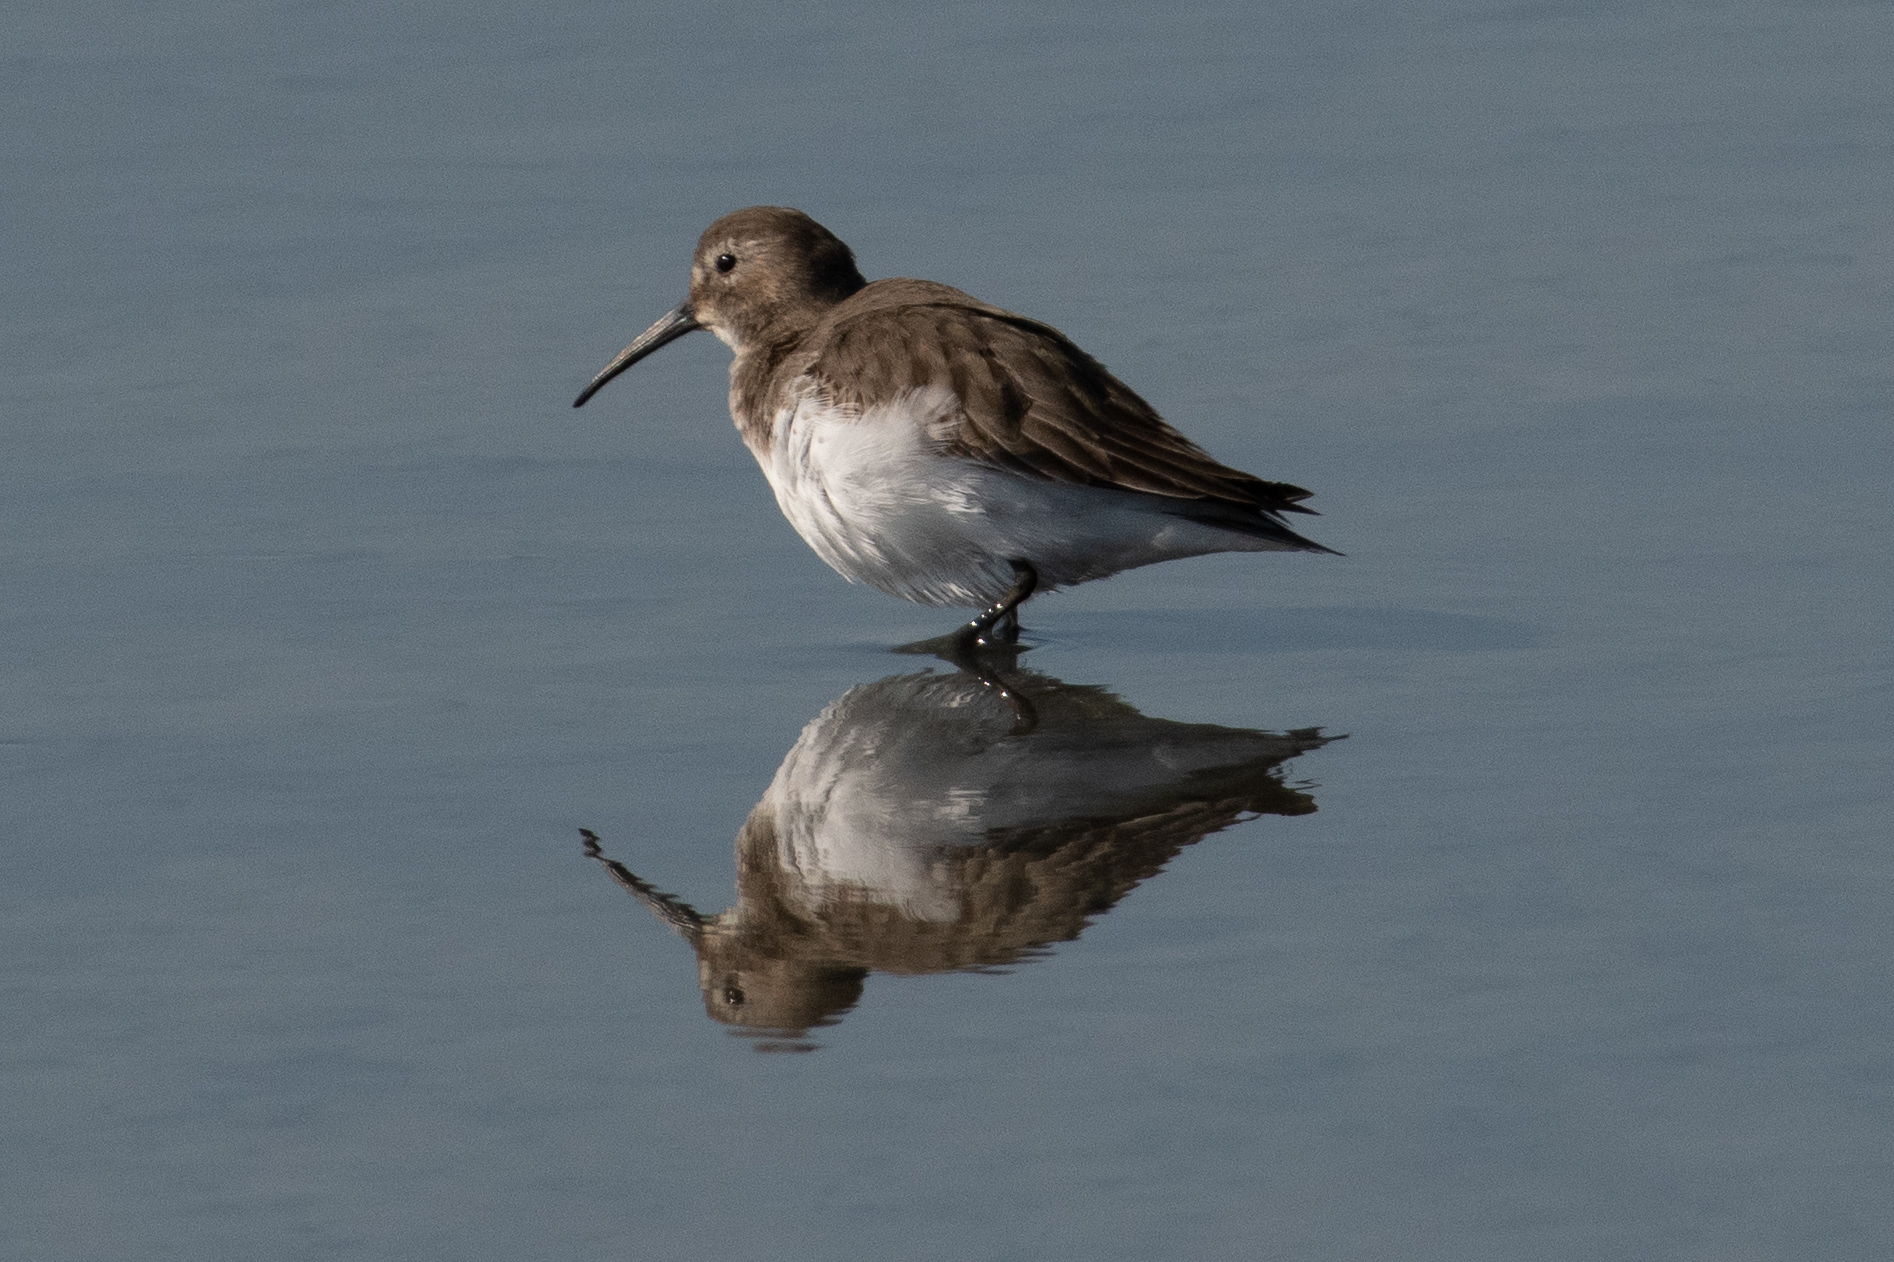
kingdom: Animalia
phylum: Chordata
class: Aves
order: Charadriiformes
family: Scolopacidae
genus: Calidris
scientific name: Calidris alpina
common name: Dunlin
